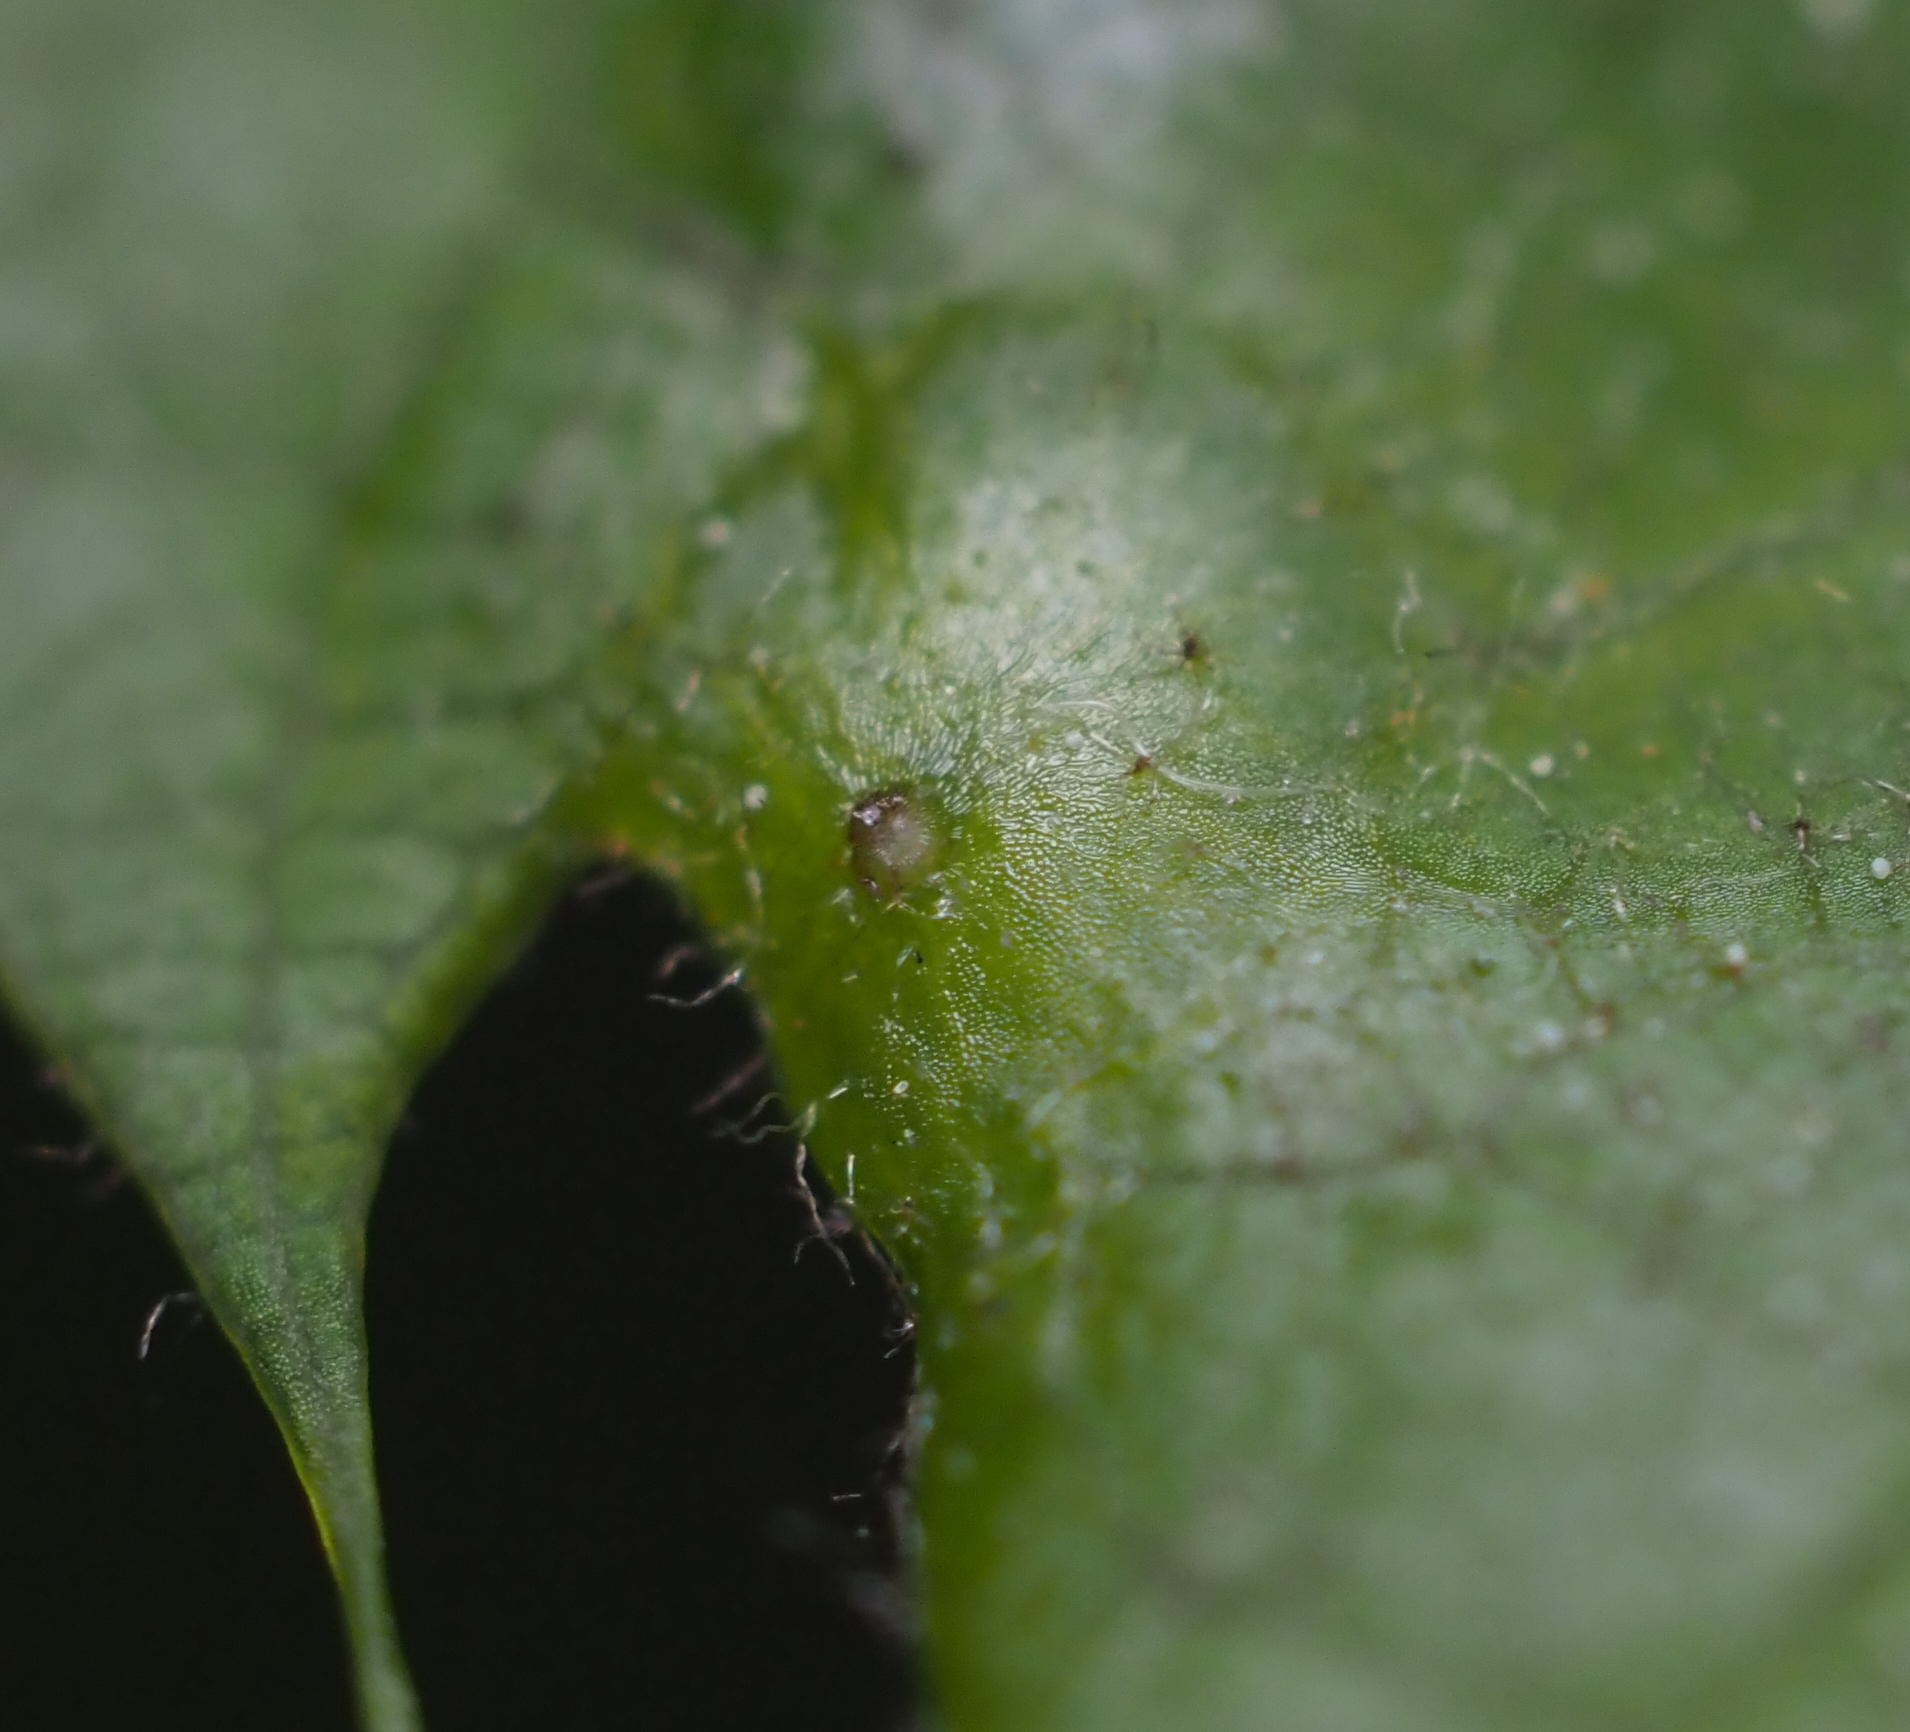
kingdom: Animalia
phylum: Arthropoda
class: Insecta
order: Hymenoptera
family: Cynipidae
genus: Dryocosmus
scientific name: Dryocosmus
